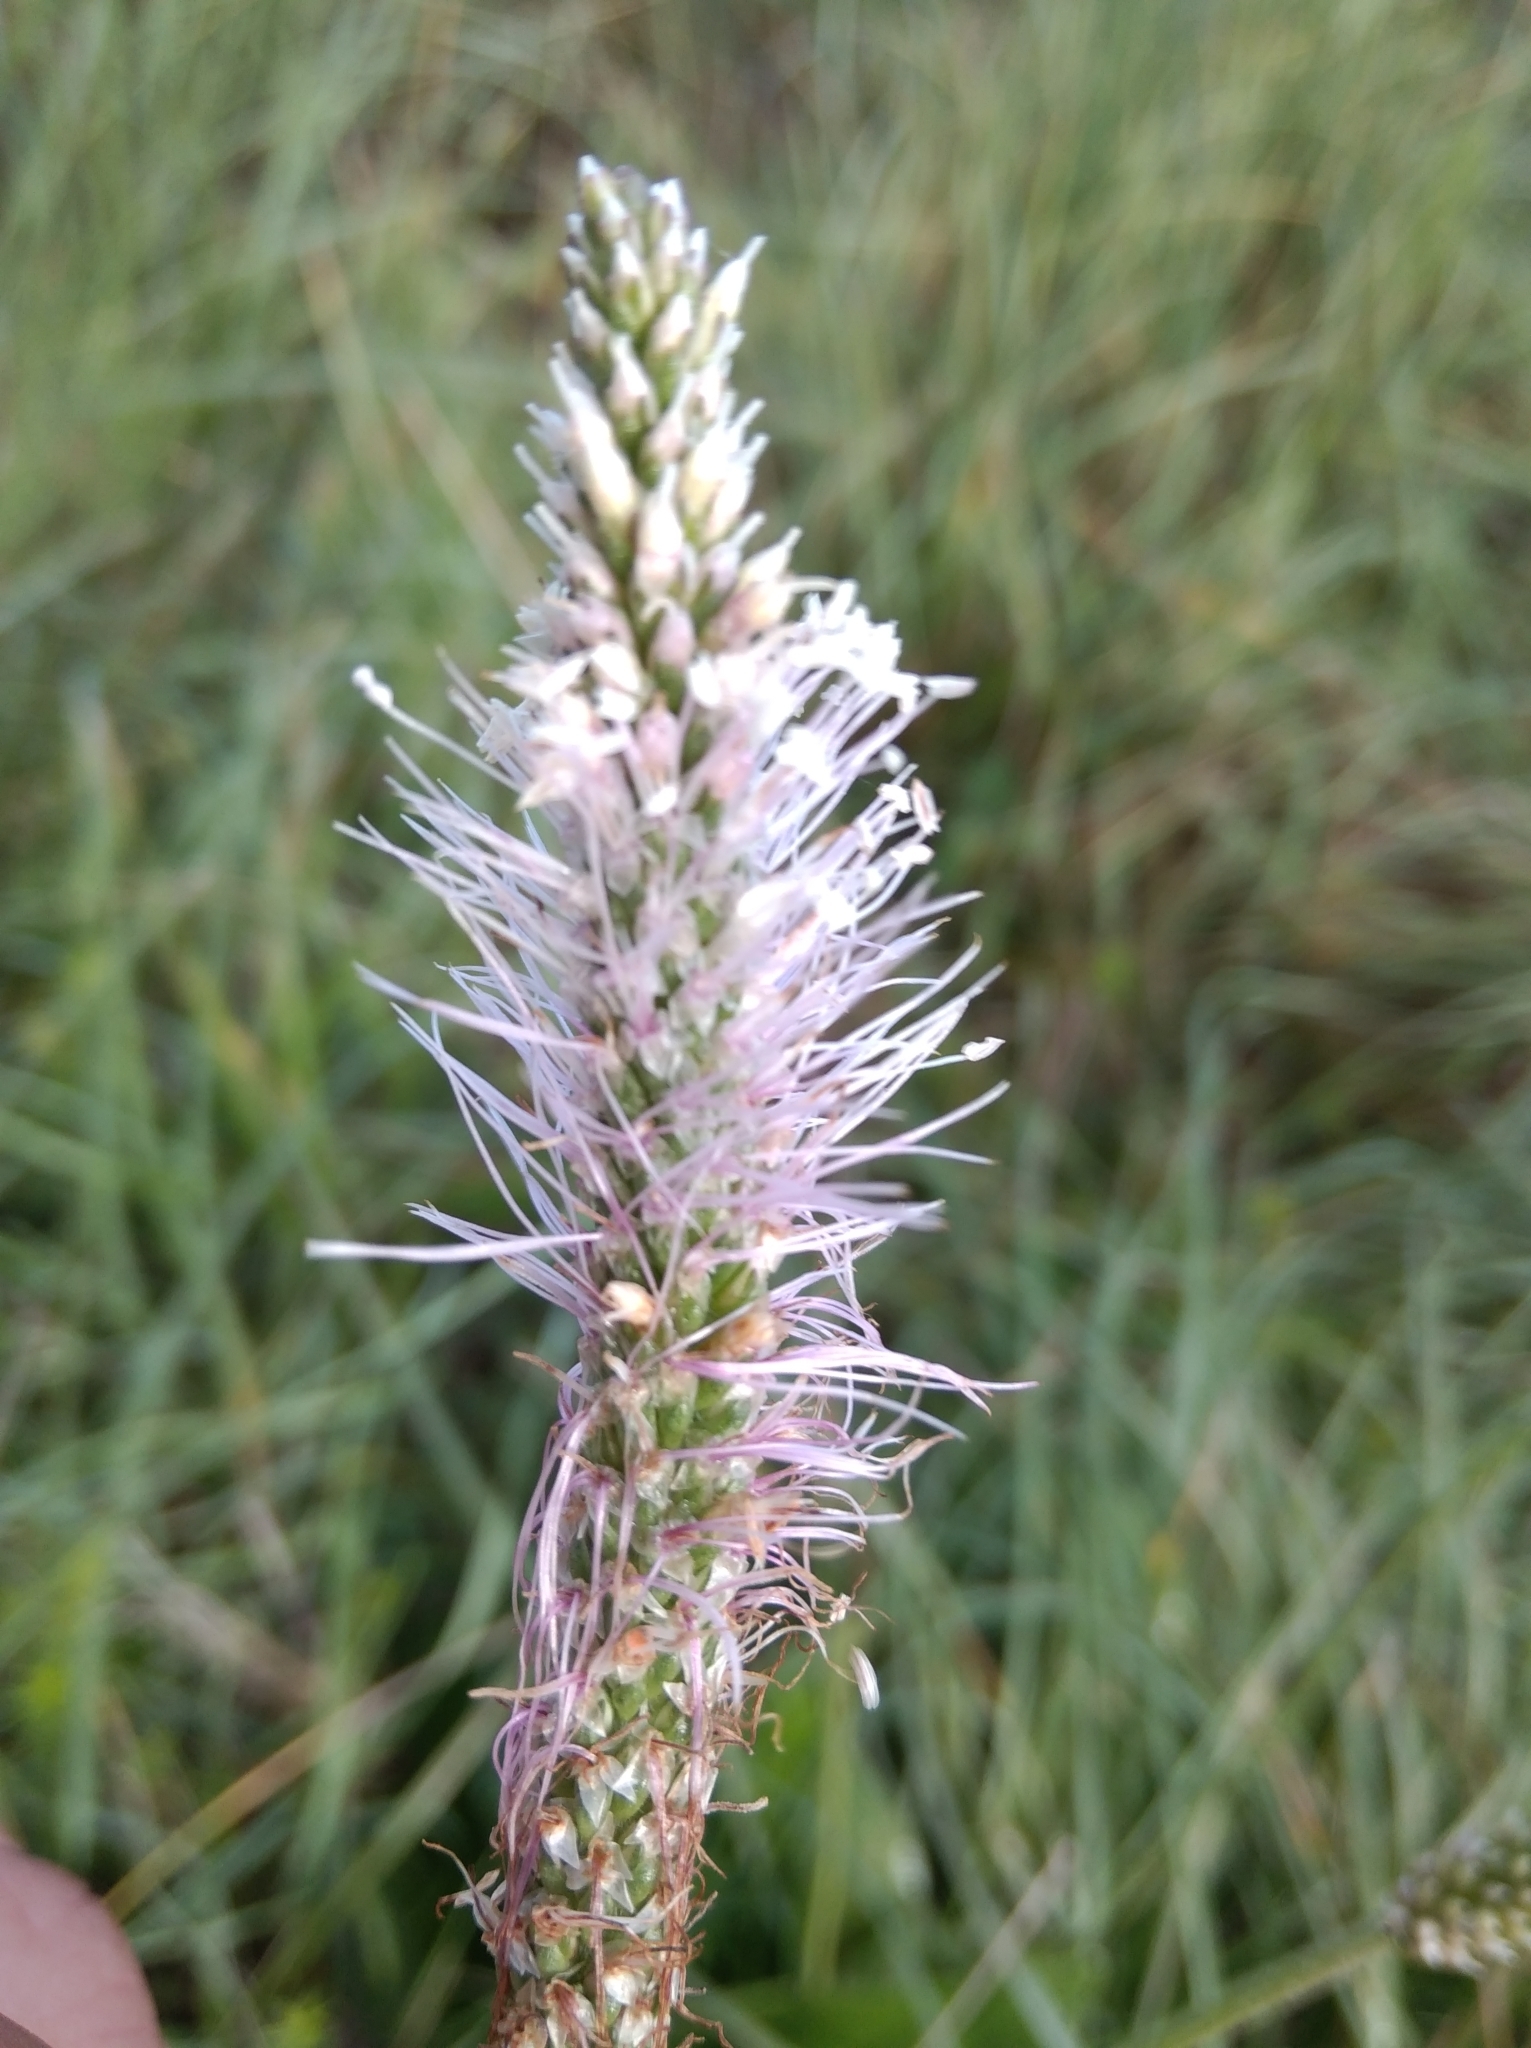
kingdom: Plantae
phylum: Tracheophyta
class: Magnoliopsida
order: Lamiales
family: Plantaginaceae
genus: Plantago
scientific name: Plantago media
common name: Hoary plantain
